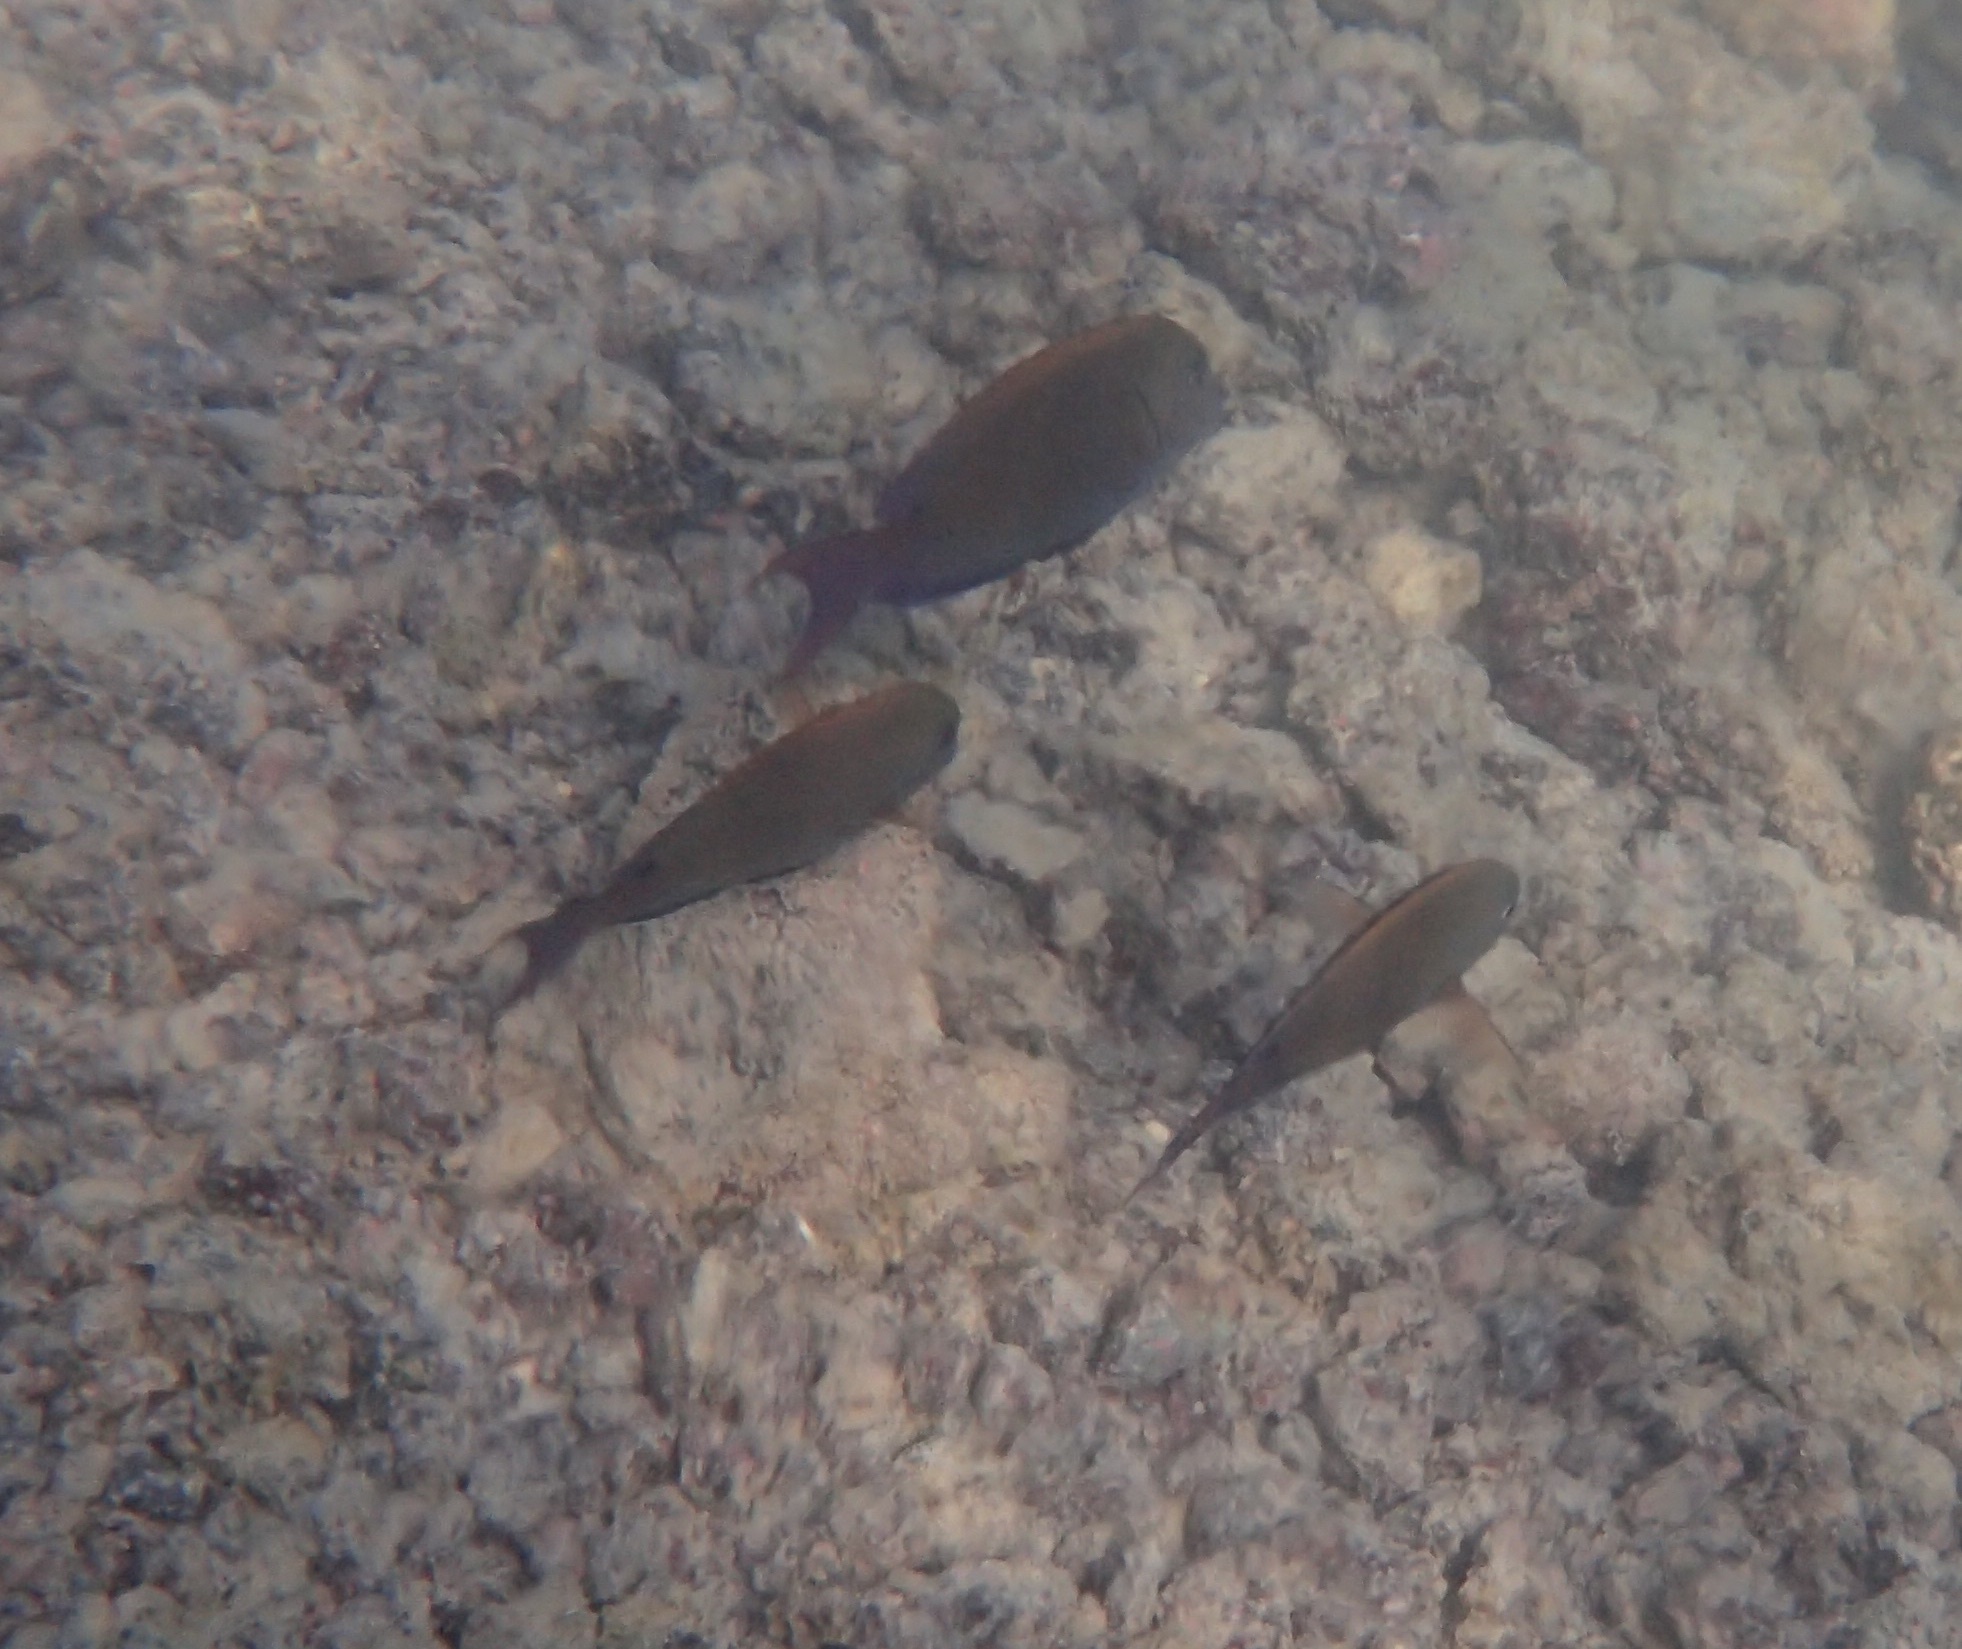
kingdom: Animalia
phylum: Chordata
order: Perciformes
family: Acanthuridae
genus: Acanthurus
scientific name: Acanthurus nigrofuscus
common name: Blackspot surgeonfish
